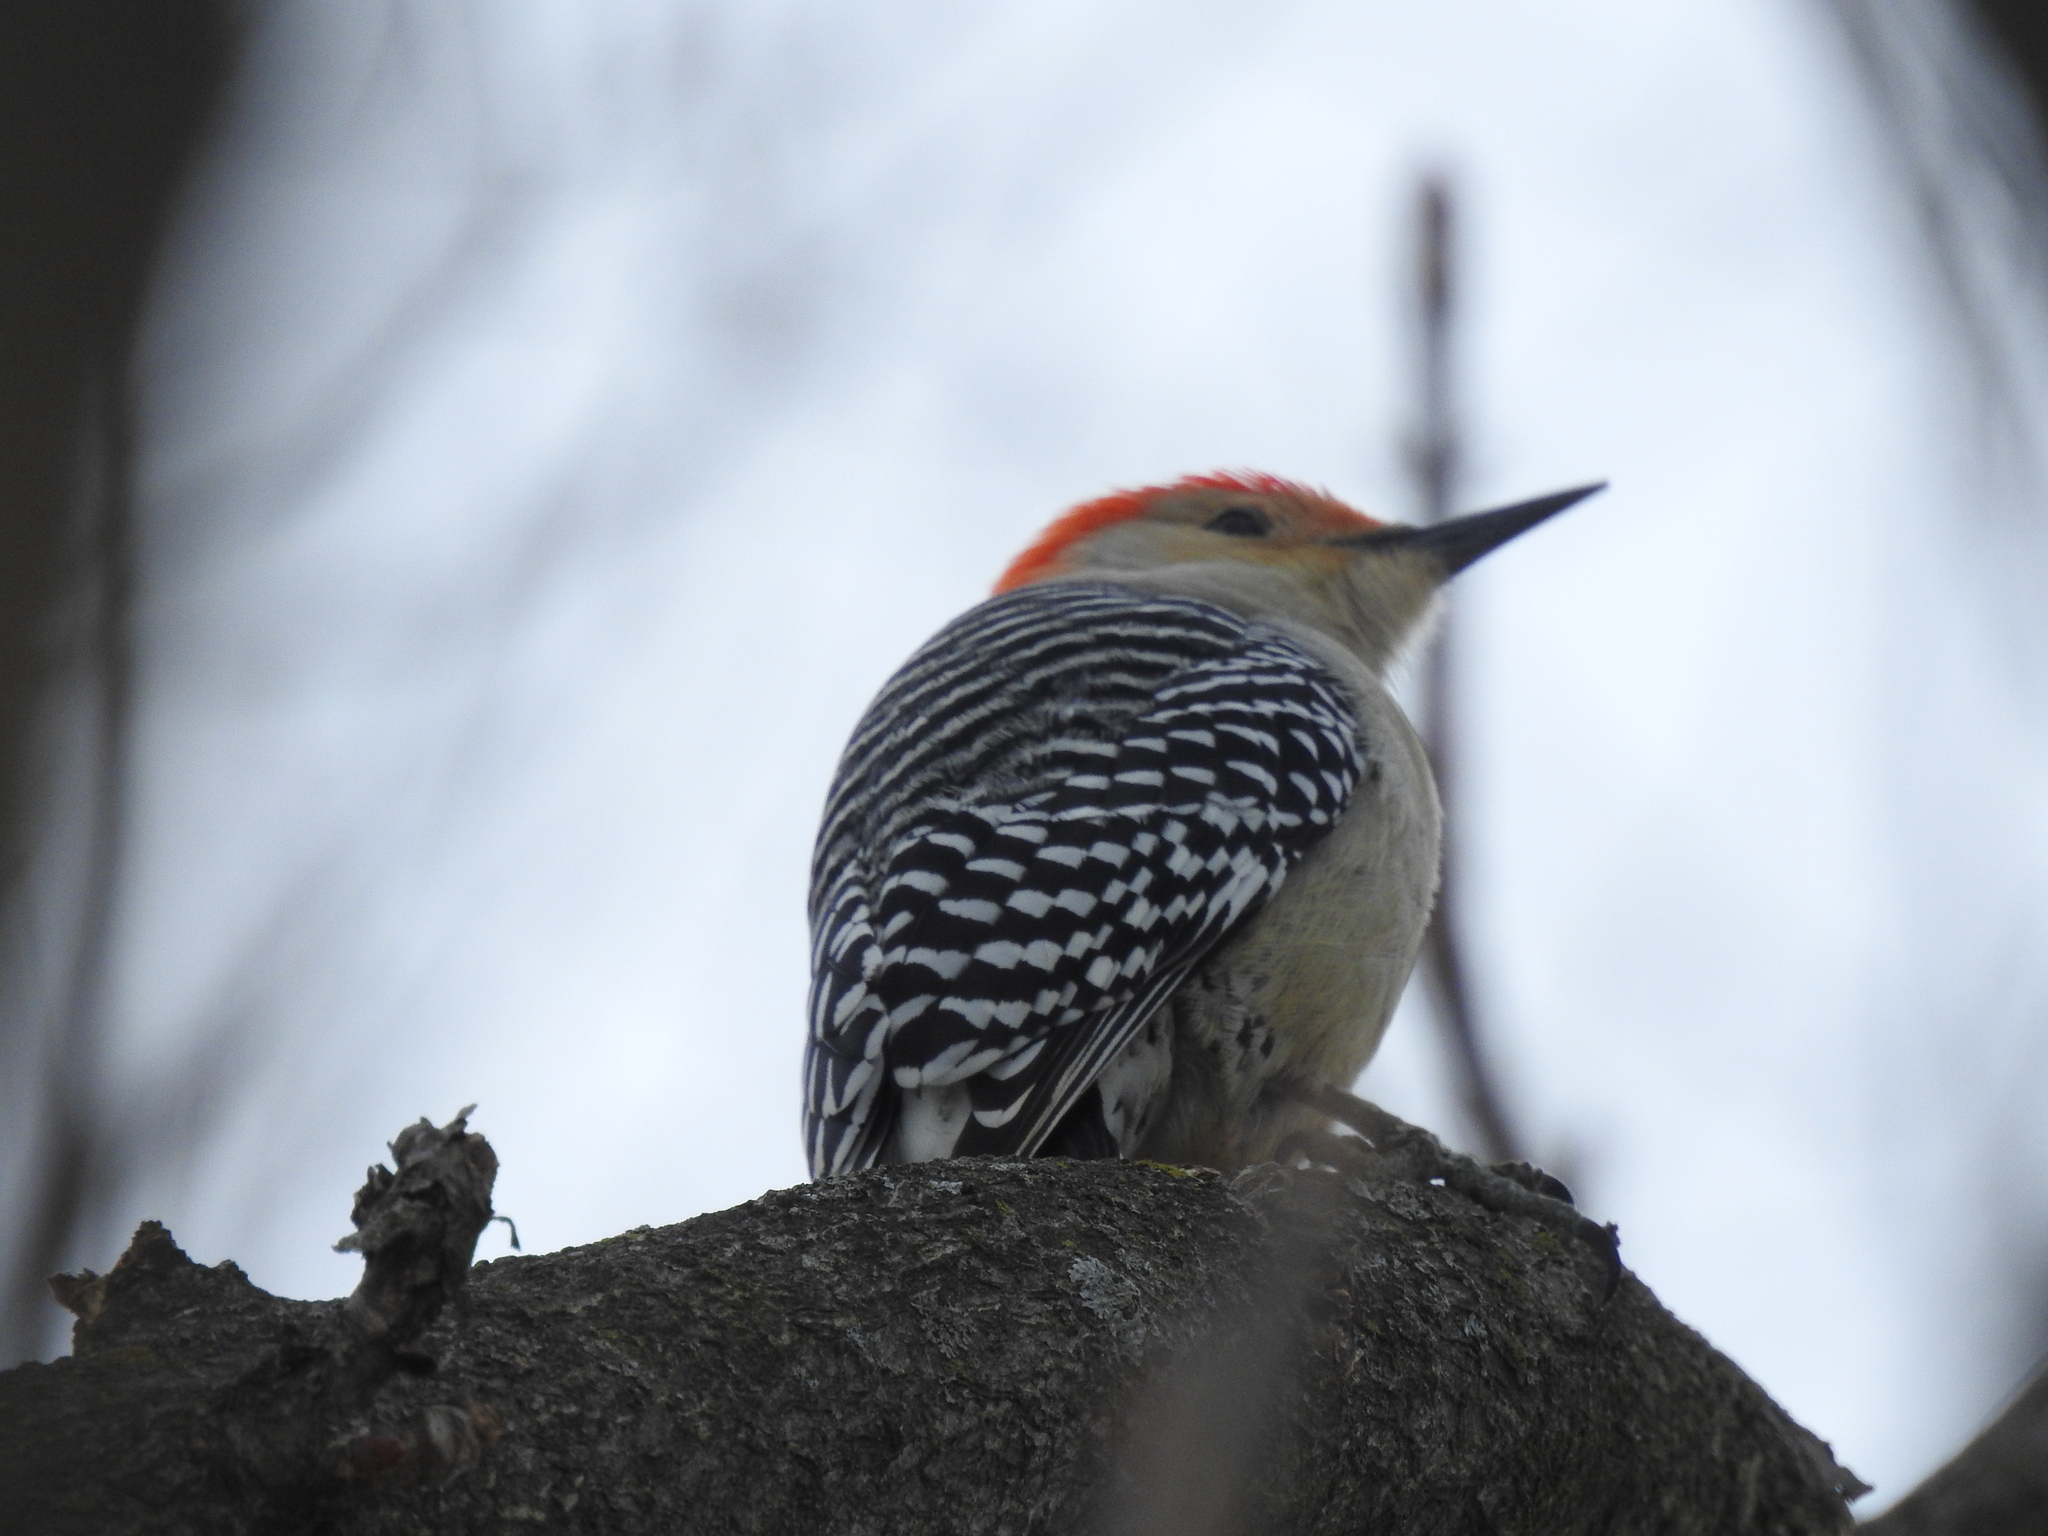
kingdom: Animalia
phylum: Chordata
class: Aves
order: Piciformes
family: Picidae
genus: Melanerpes
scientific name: Melanerpes carolinus
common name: Red-bellied woodpecker
